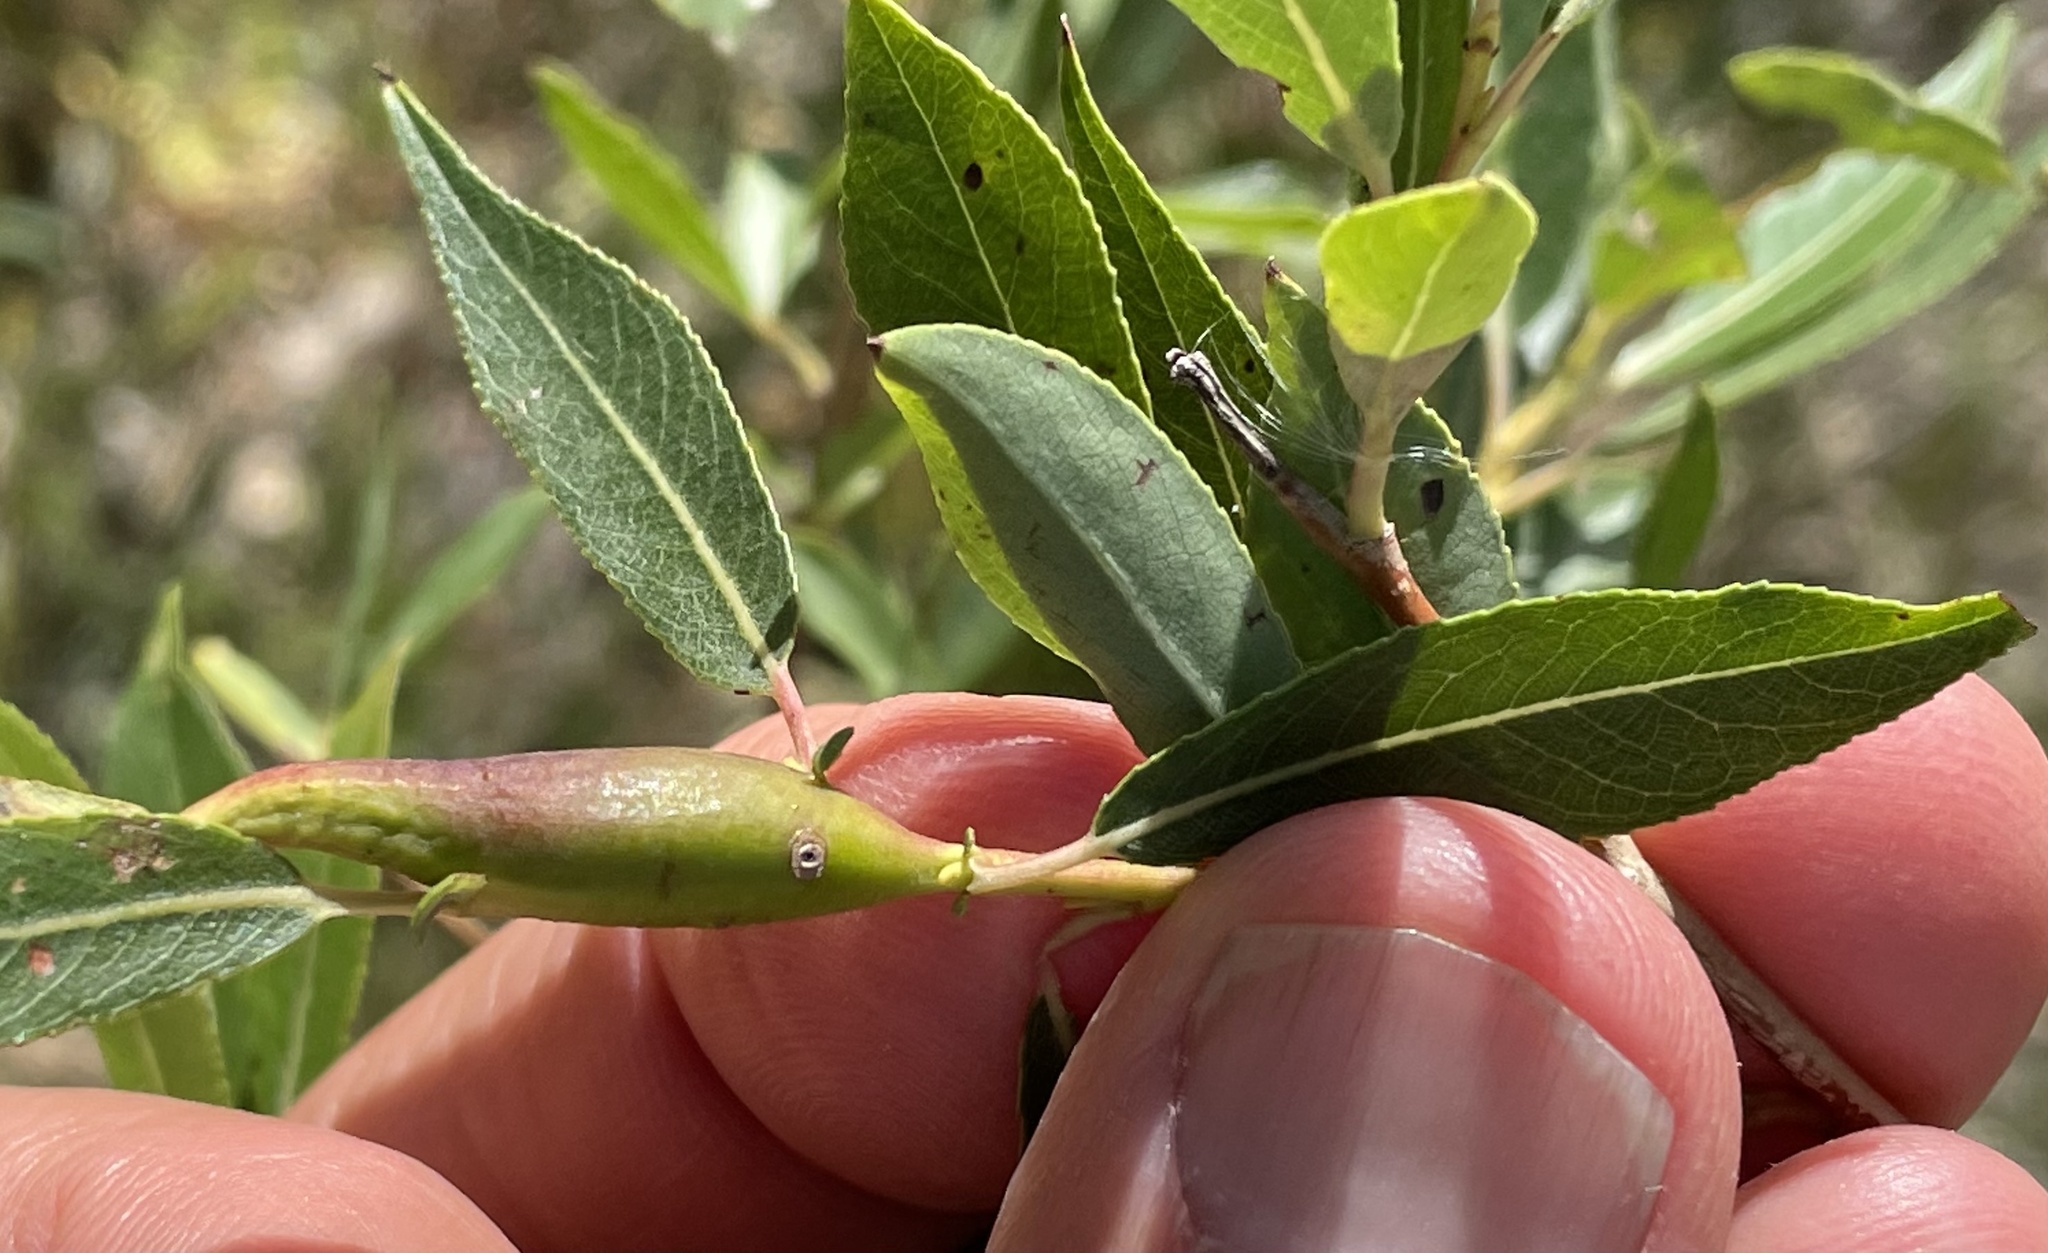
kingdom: Animalia
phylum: Arthropoda
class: Insecta
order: Diptera
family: Cecidomyiidae
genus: Thecodiplosis
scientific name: Thecodiplosis pinirigidae
